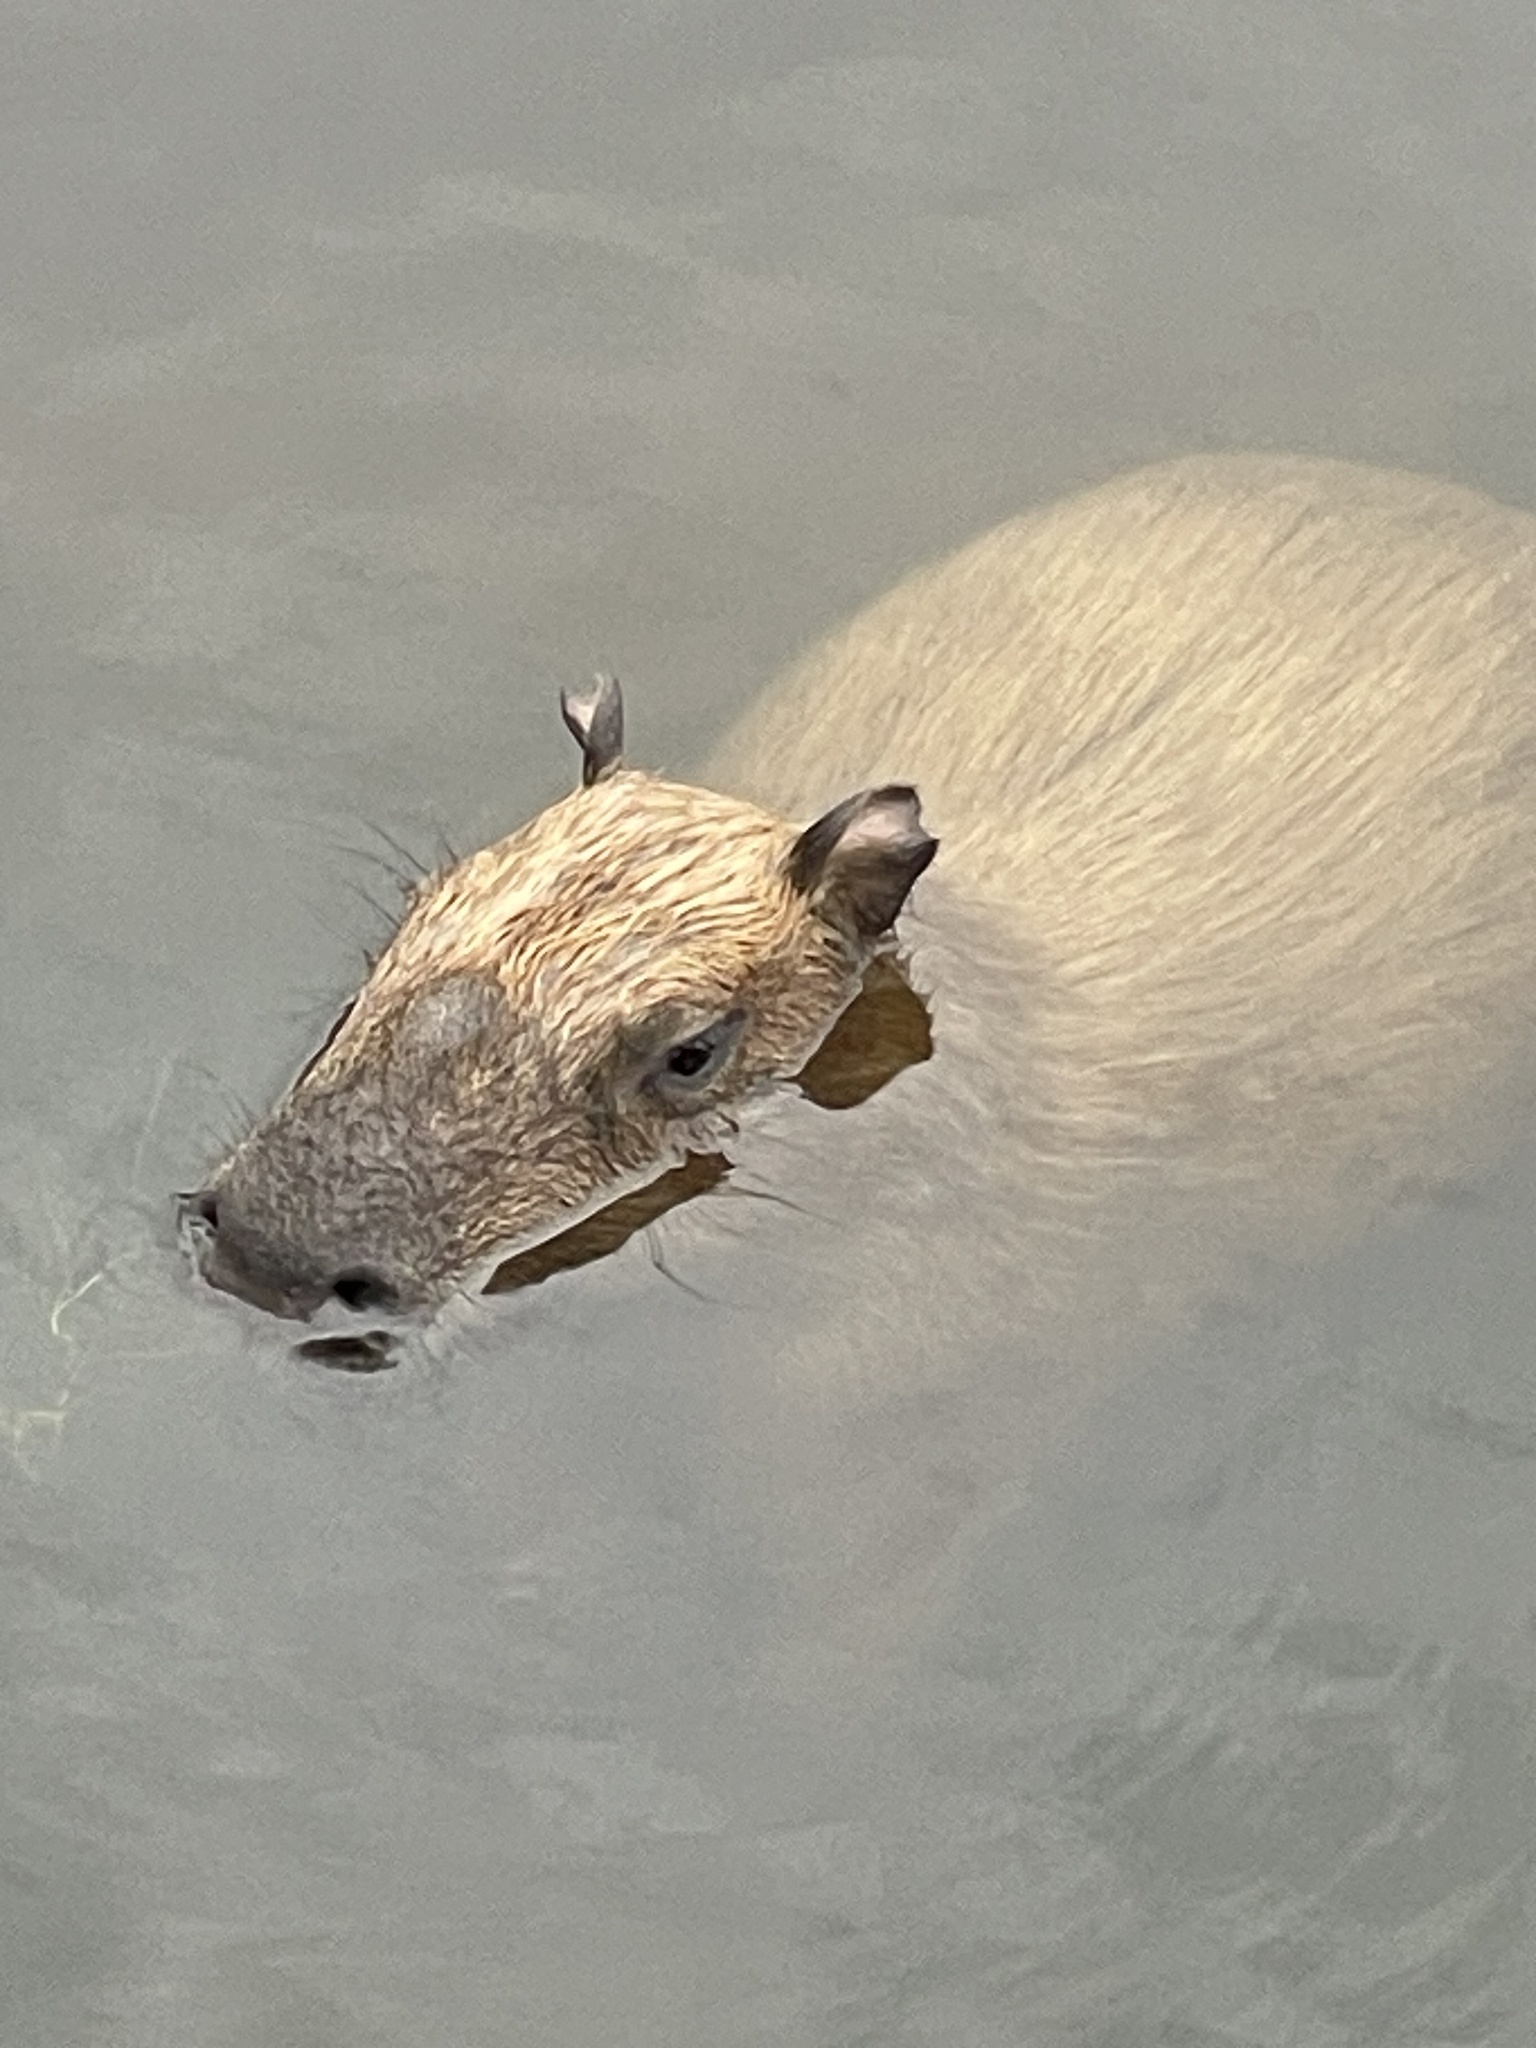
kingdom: Animalia
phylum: Chordata
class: Mammalia
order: Rodentia
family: Caviidae
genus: Hydrochoerus
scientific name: Hydrochoerus hydrochaeris
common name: Capybara
